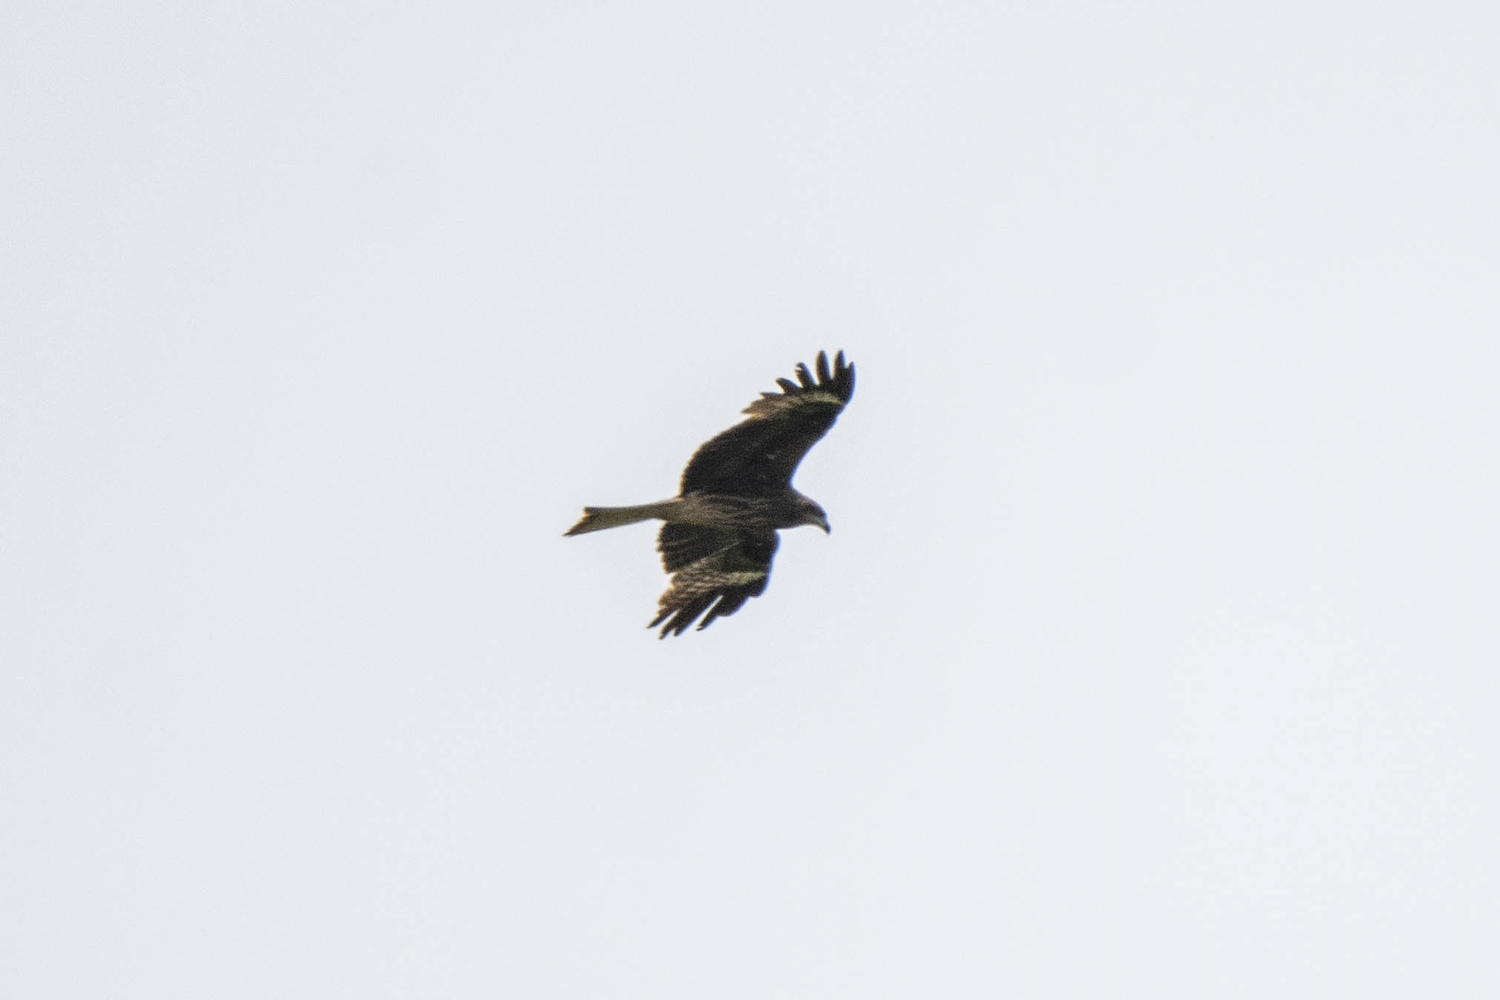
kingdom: Animalia
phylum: Chordata
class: Aves
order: Accipitriformes
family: Accipitridae
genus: Milvus
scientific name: Milvus migrans
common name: Black kite
